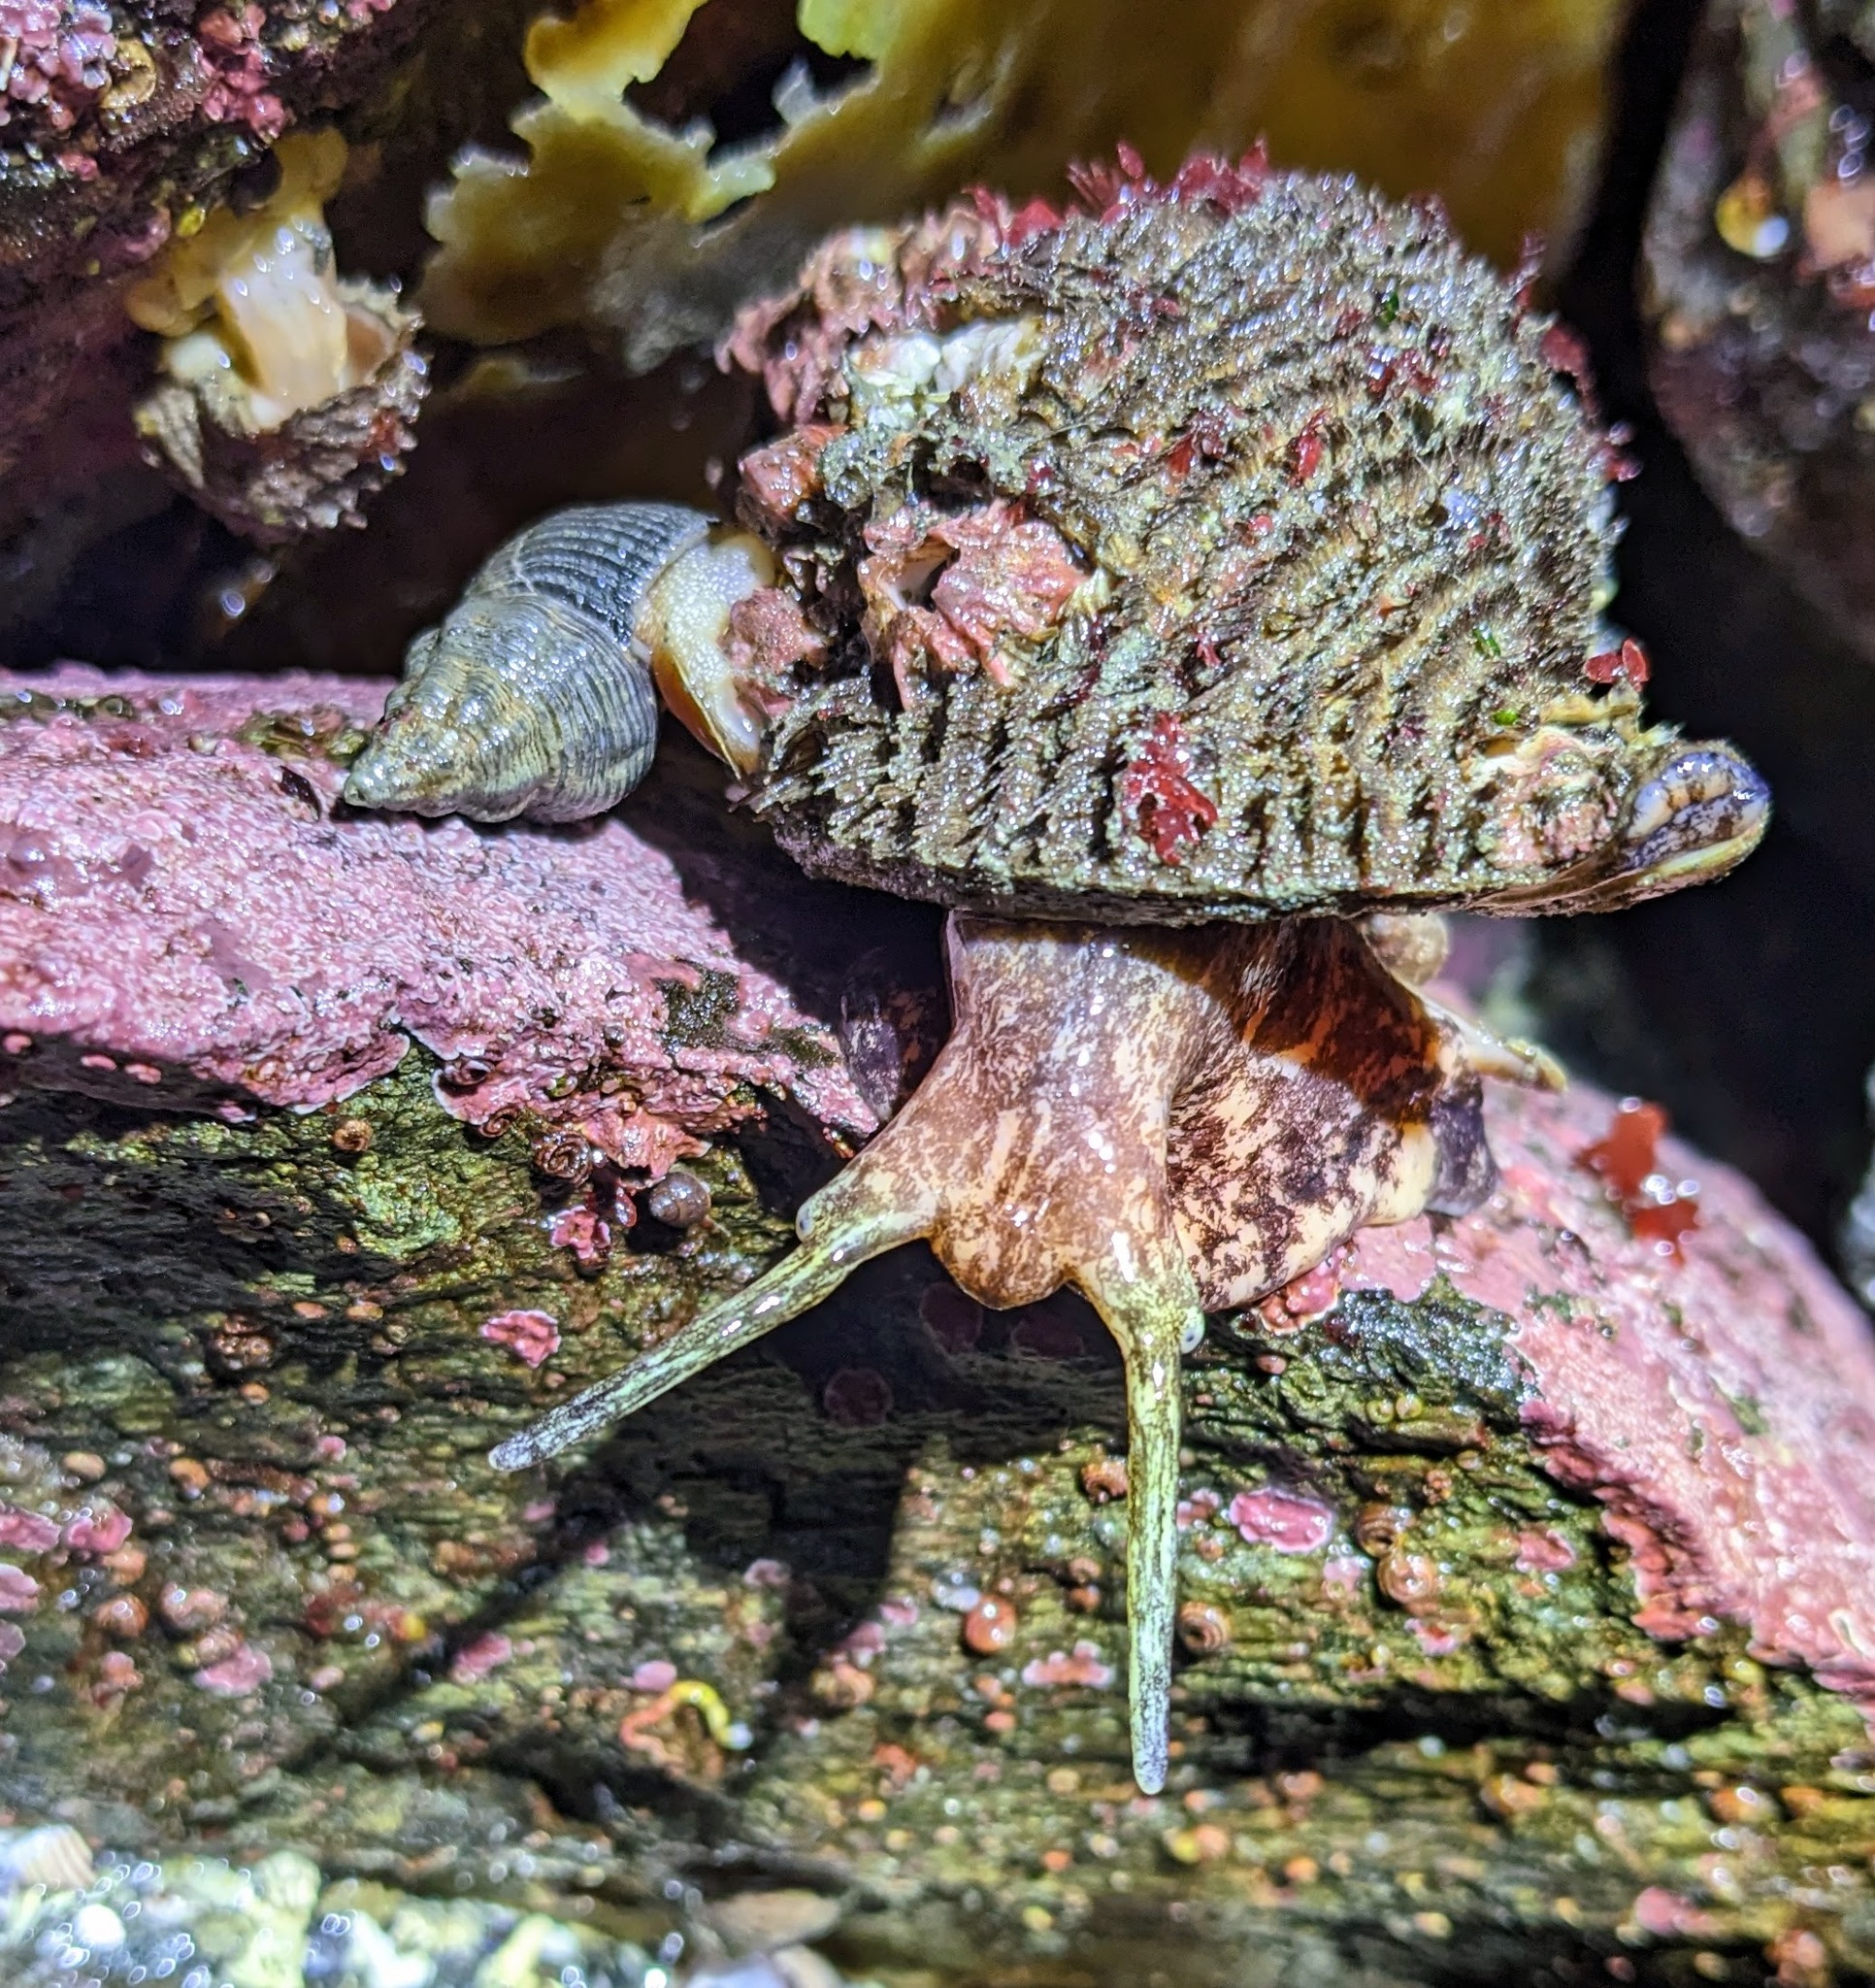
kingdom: Animalia
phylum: Mollusca
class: Gastropoda
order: Neogastropoda
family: Tudiclidae
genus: Lirabuccinum
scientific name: Lirabuccinum dirum
